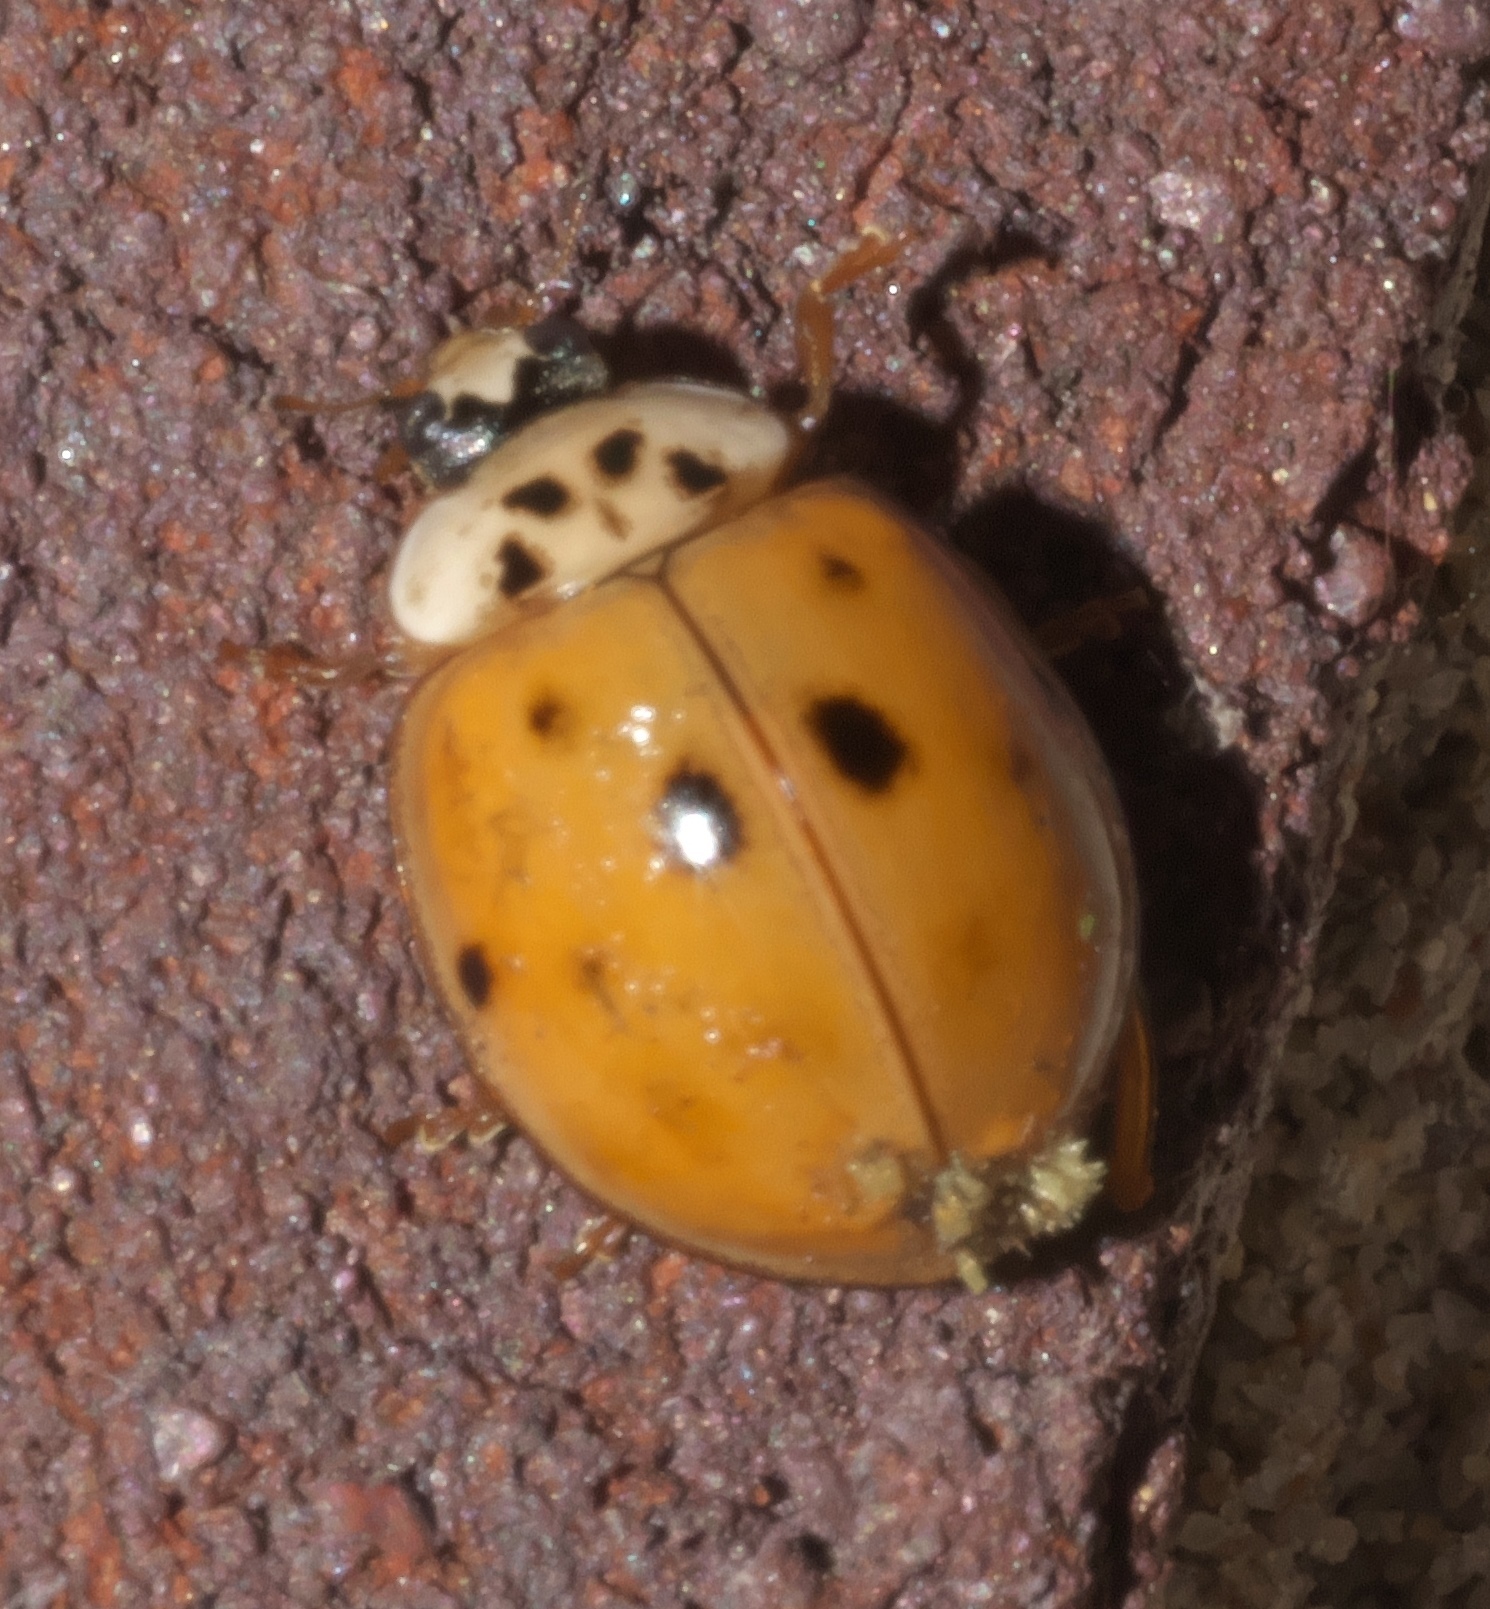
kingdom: Animalia
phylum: Arthropoda
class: Insecta
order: Coleoptera
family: Coccinellidae
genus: Harmonia
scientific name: Harmonia axyridis
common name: Harlequin ladybird
